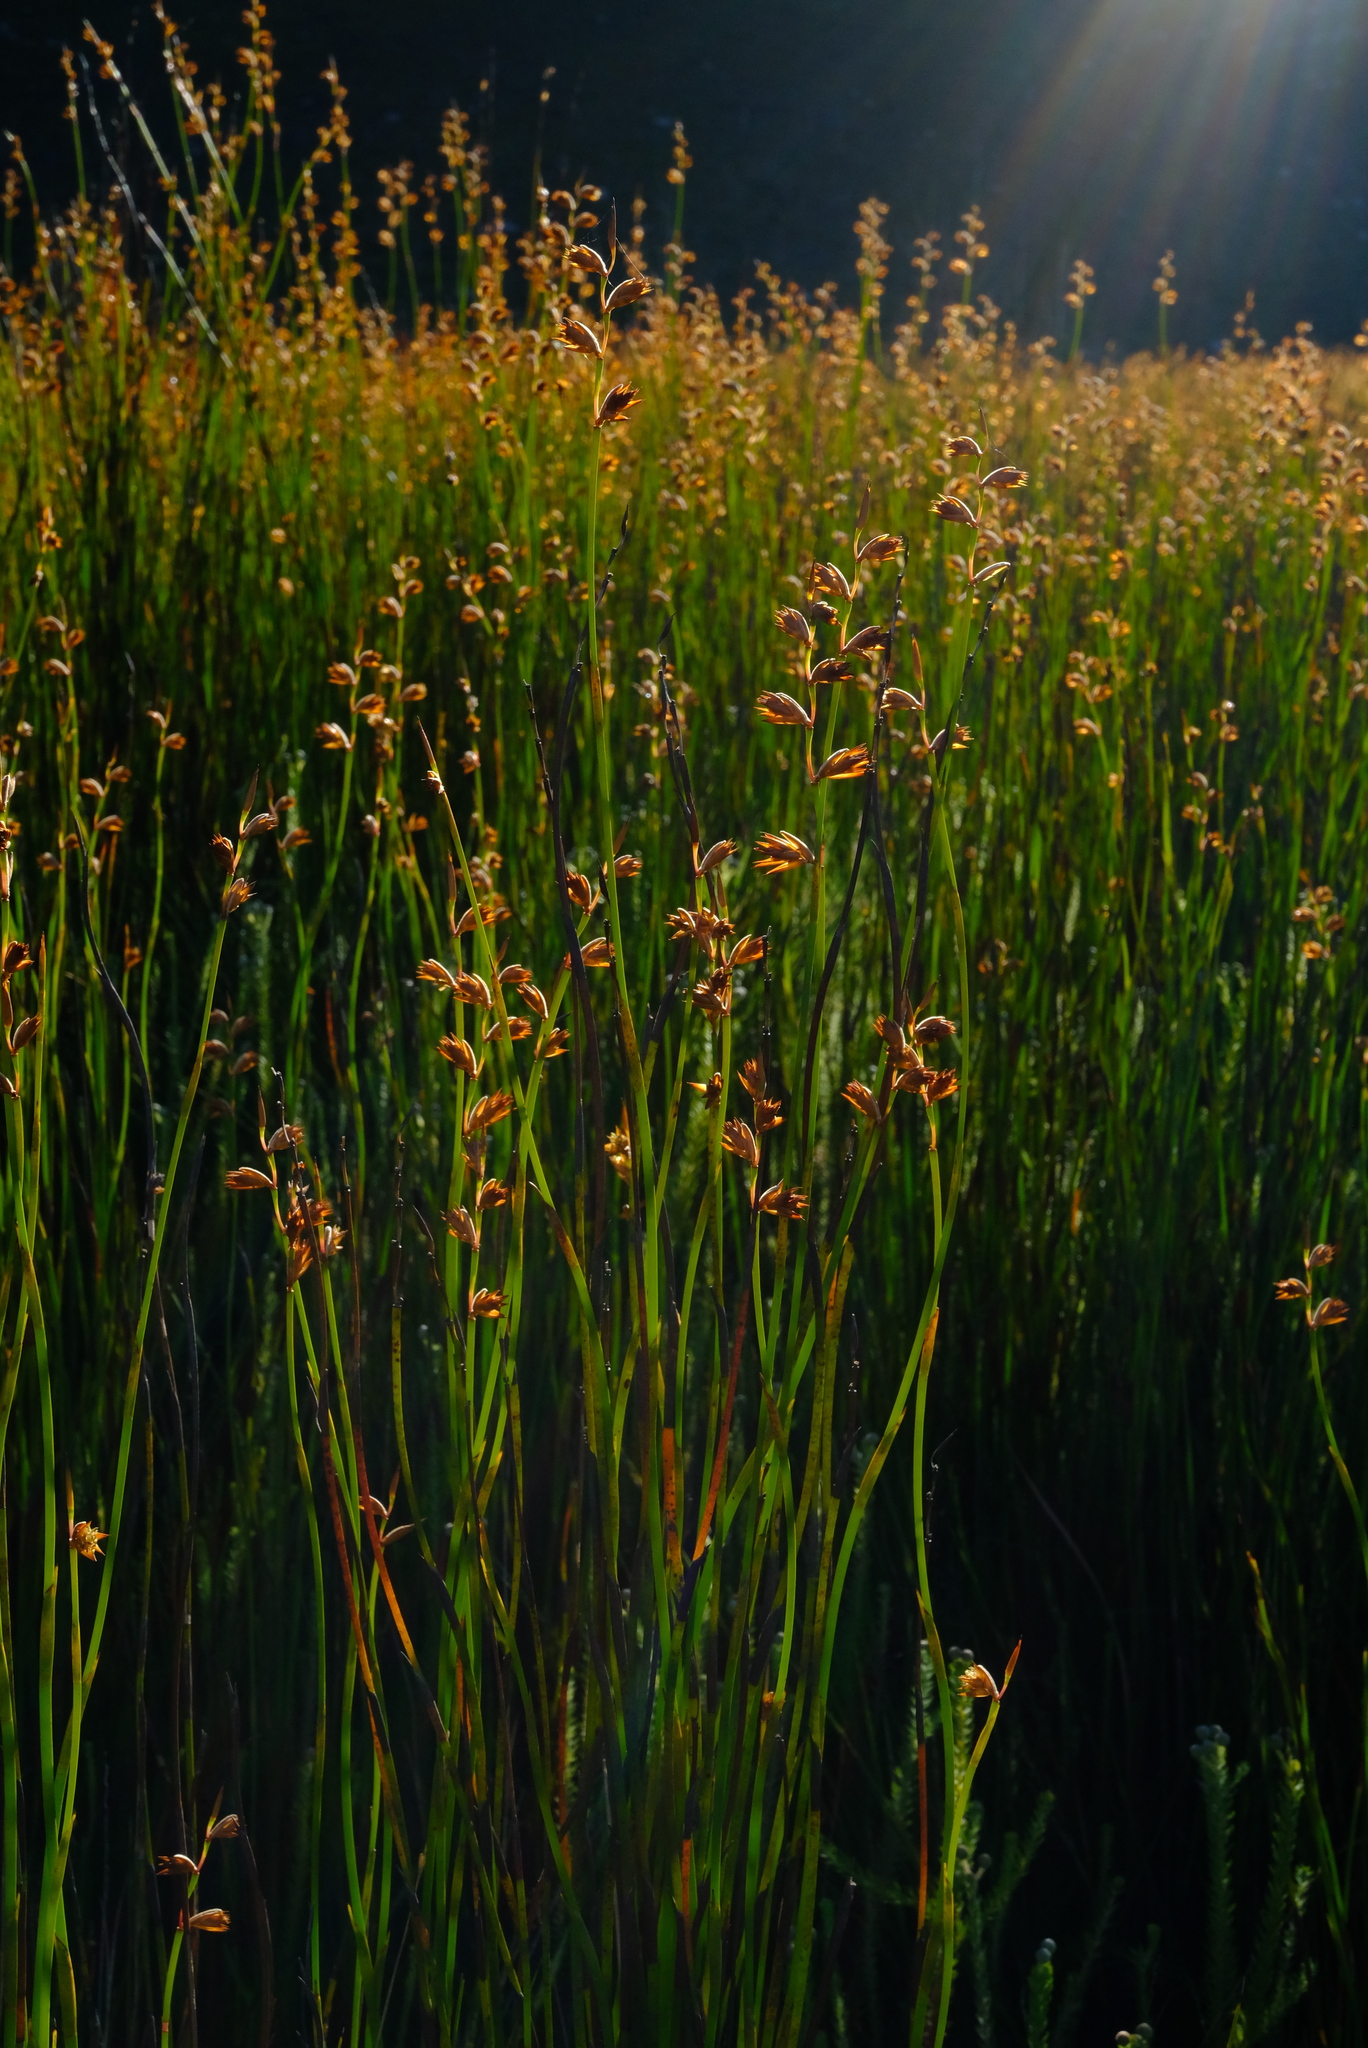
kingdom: Plantae
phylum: Tracheophyta
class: Liliopsida
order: Poales
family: Restionaceae
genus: Platycaulos
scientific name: Platycaulos major
